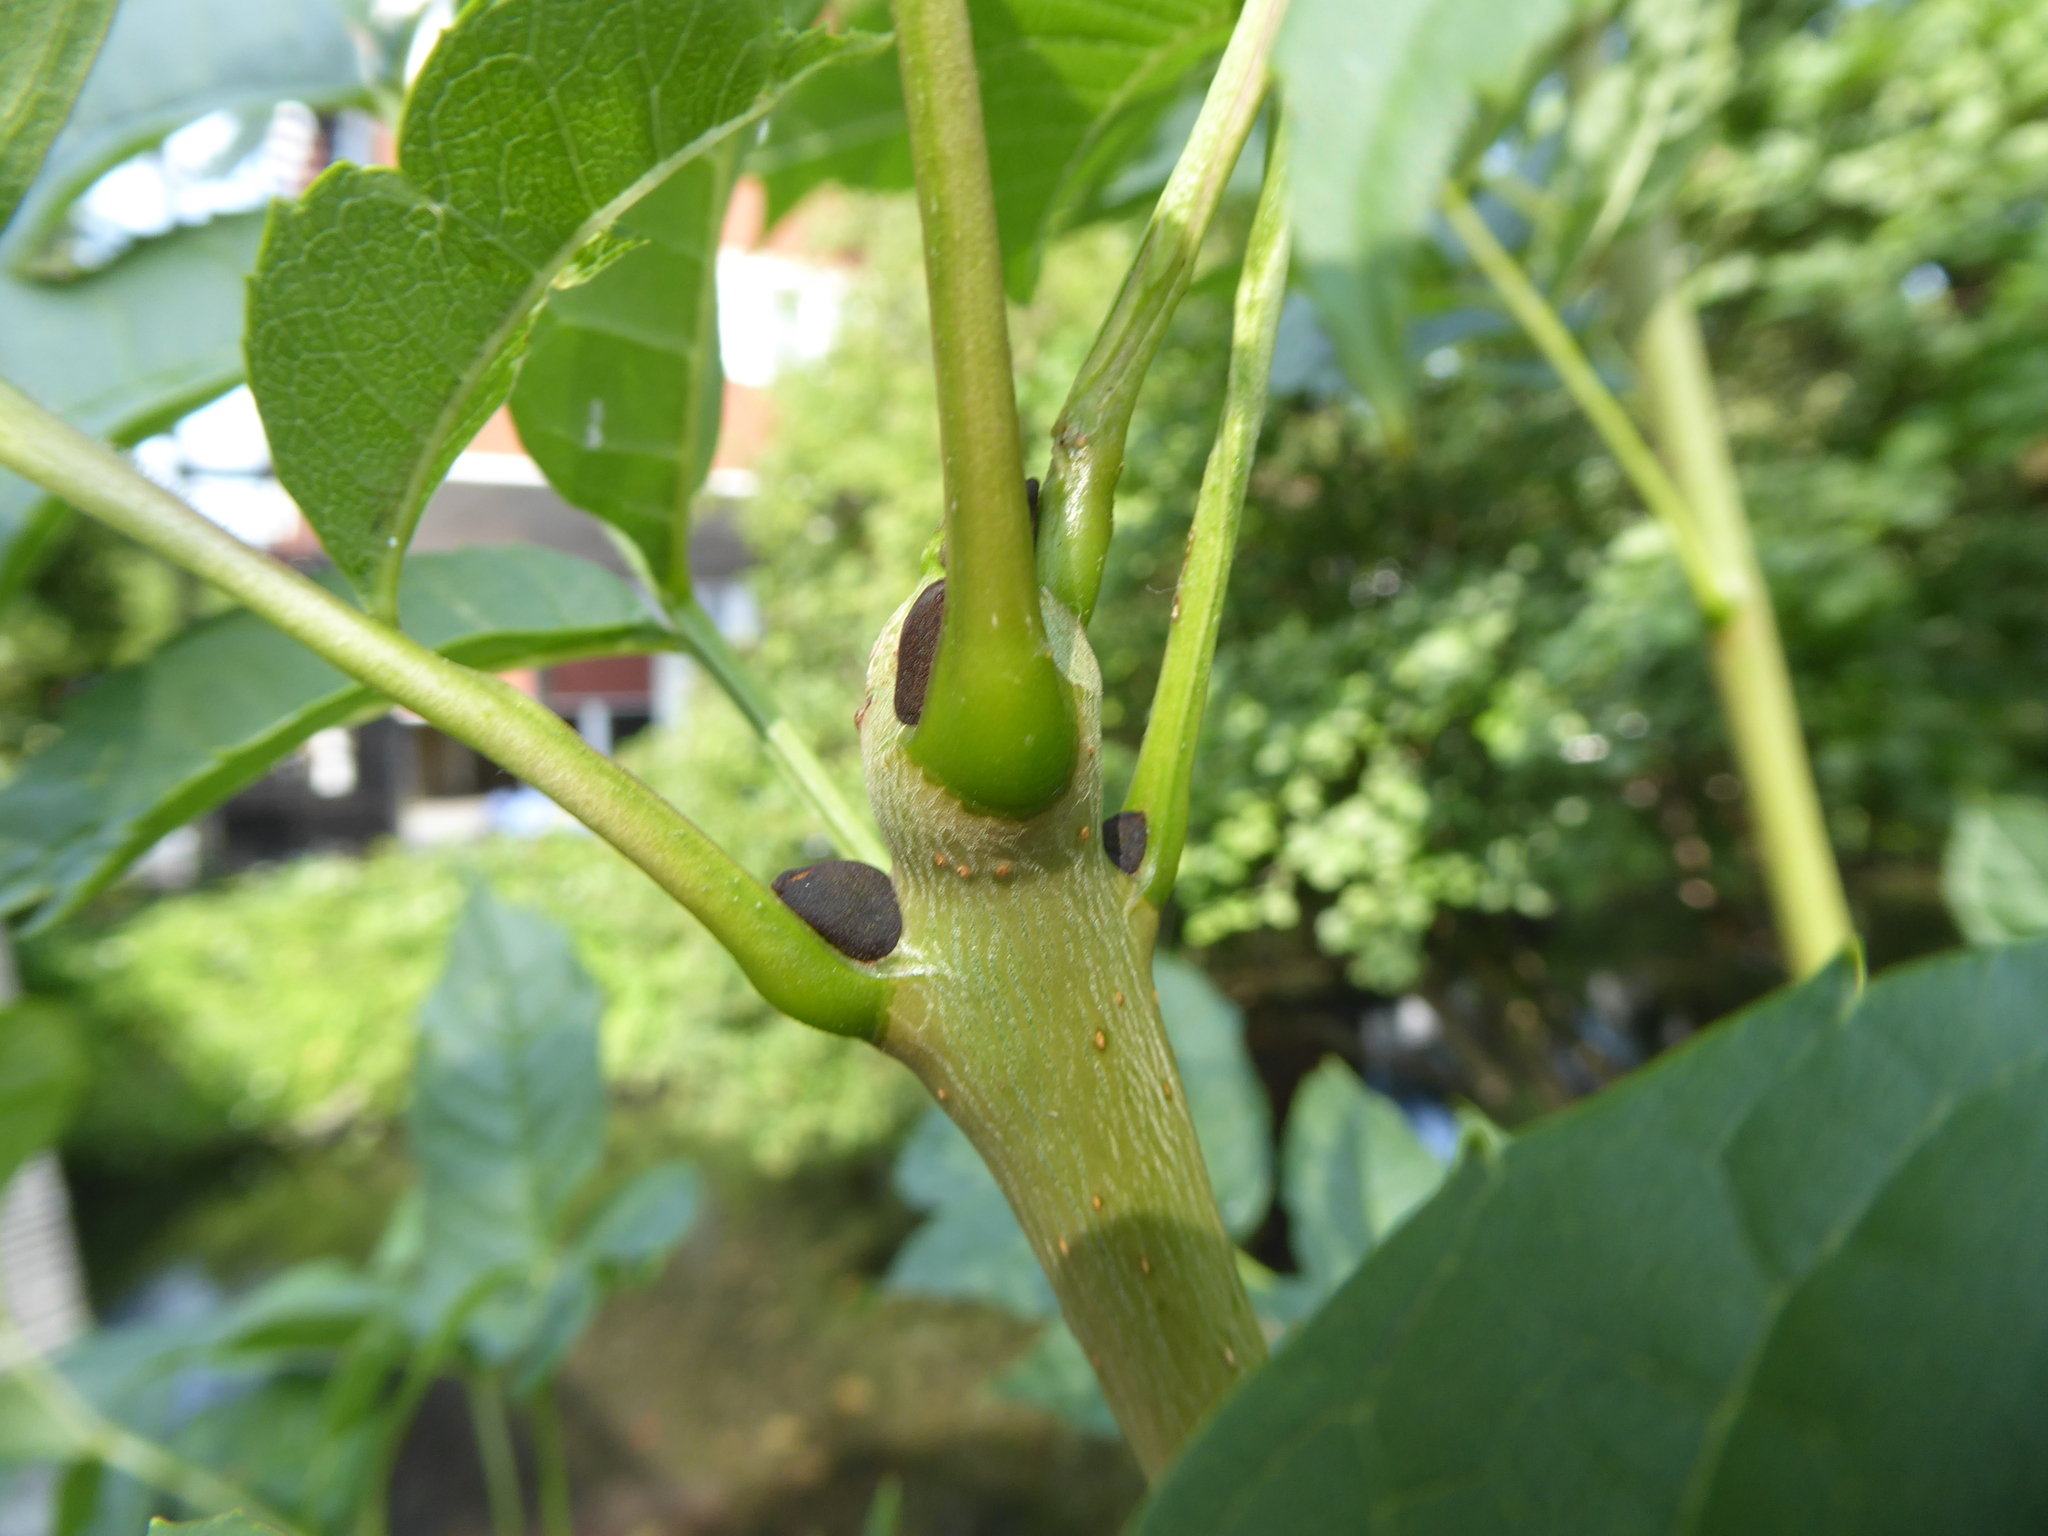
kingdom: Plantae
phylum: Tracheophyta
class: Magnoliopsida
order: Lamiales
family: Oleaceae
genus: Fraxinus
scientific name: Fraxinus excelsior
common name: European ash
